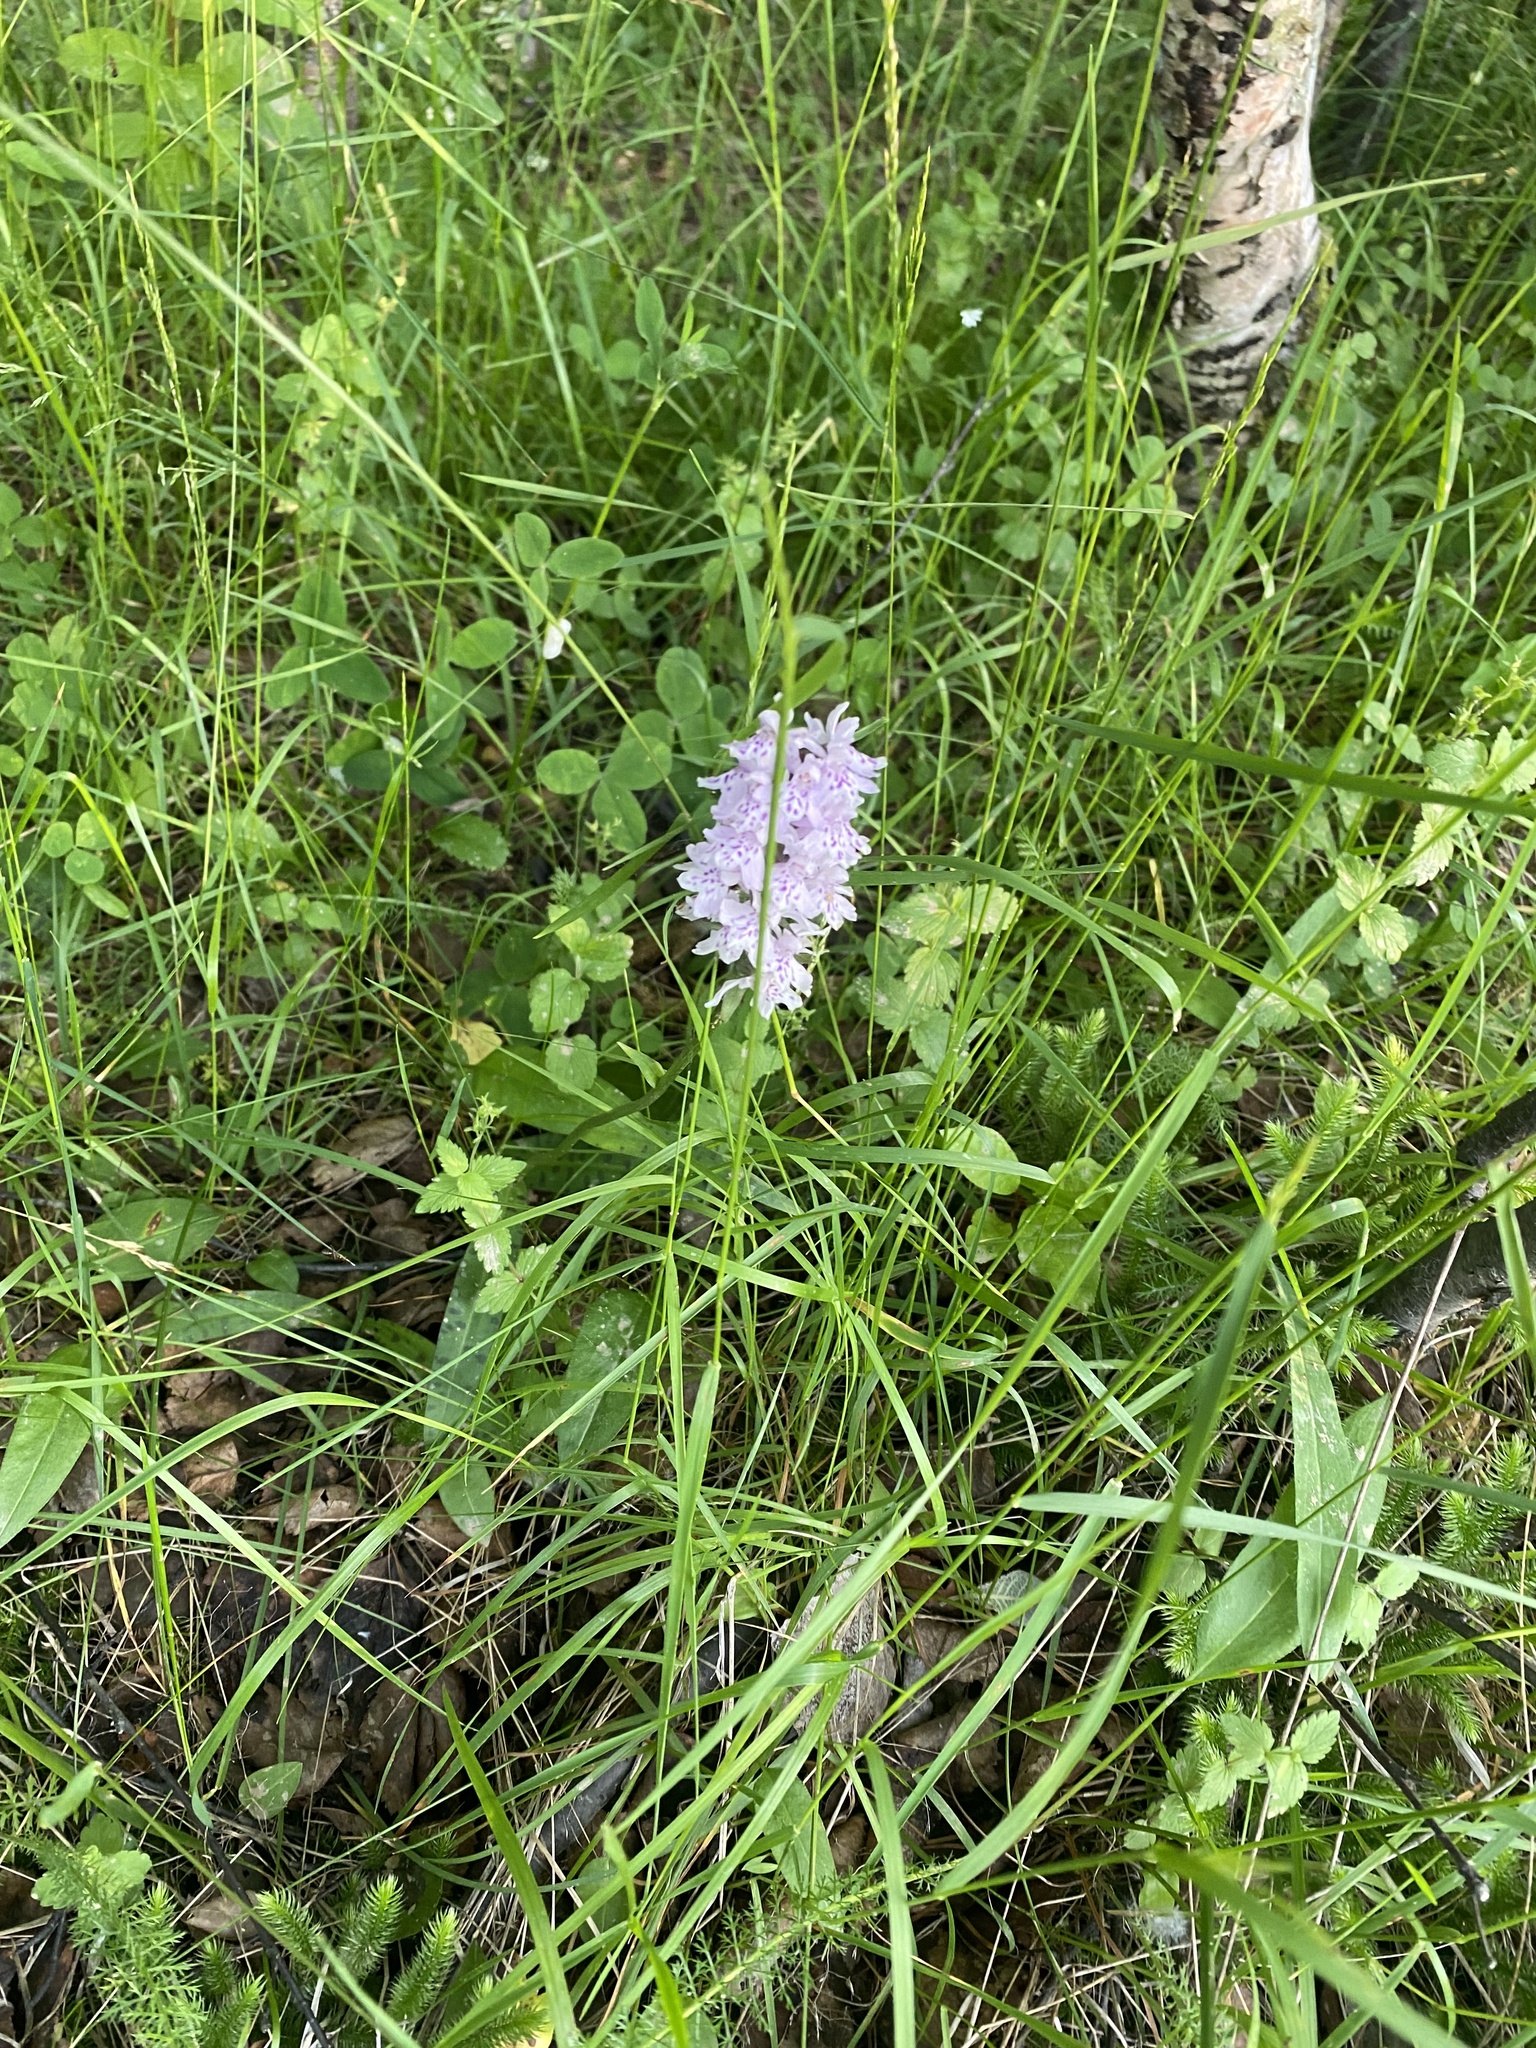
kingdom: Plantae
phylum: Tracheophyta
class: Liliopsida
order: Asparagales
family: Orchidaceae
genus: Dactylorhiza
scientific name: Dactylorhiza maculata
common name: Heath spotted-orchid
